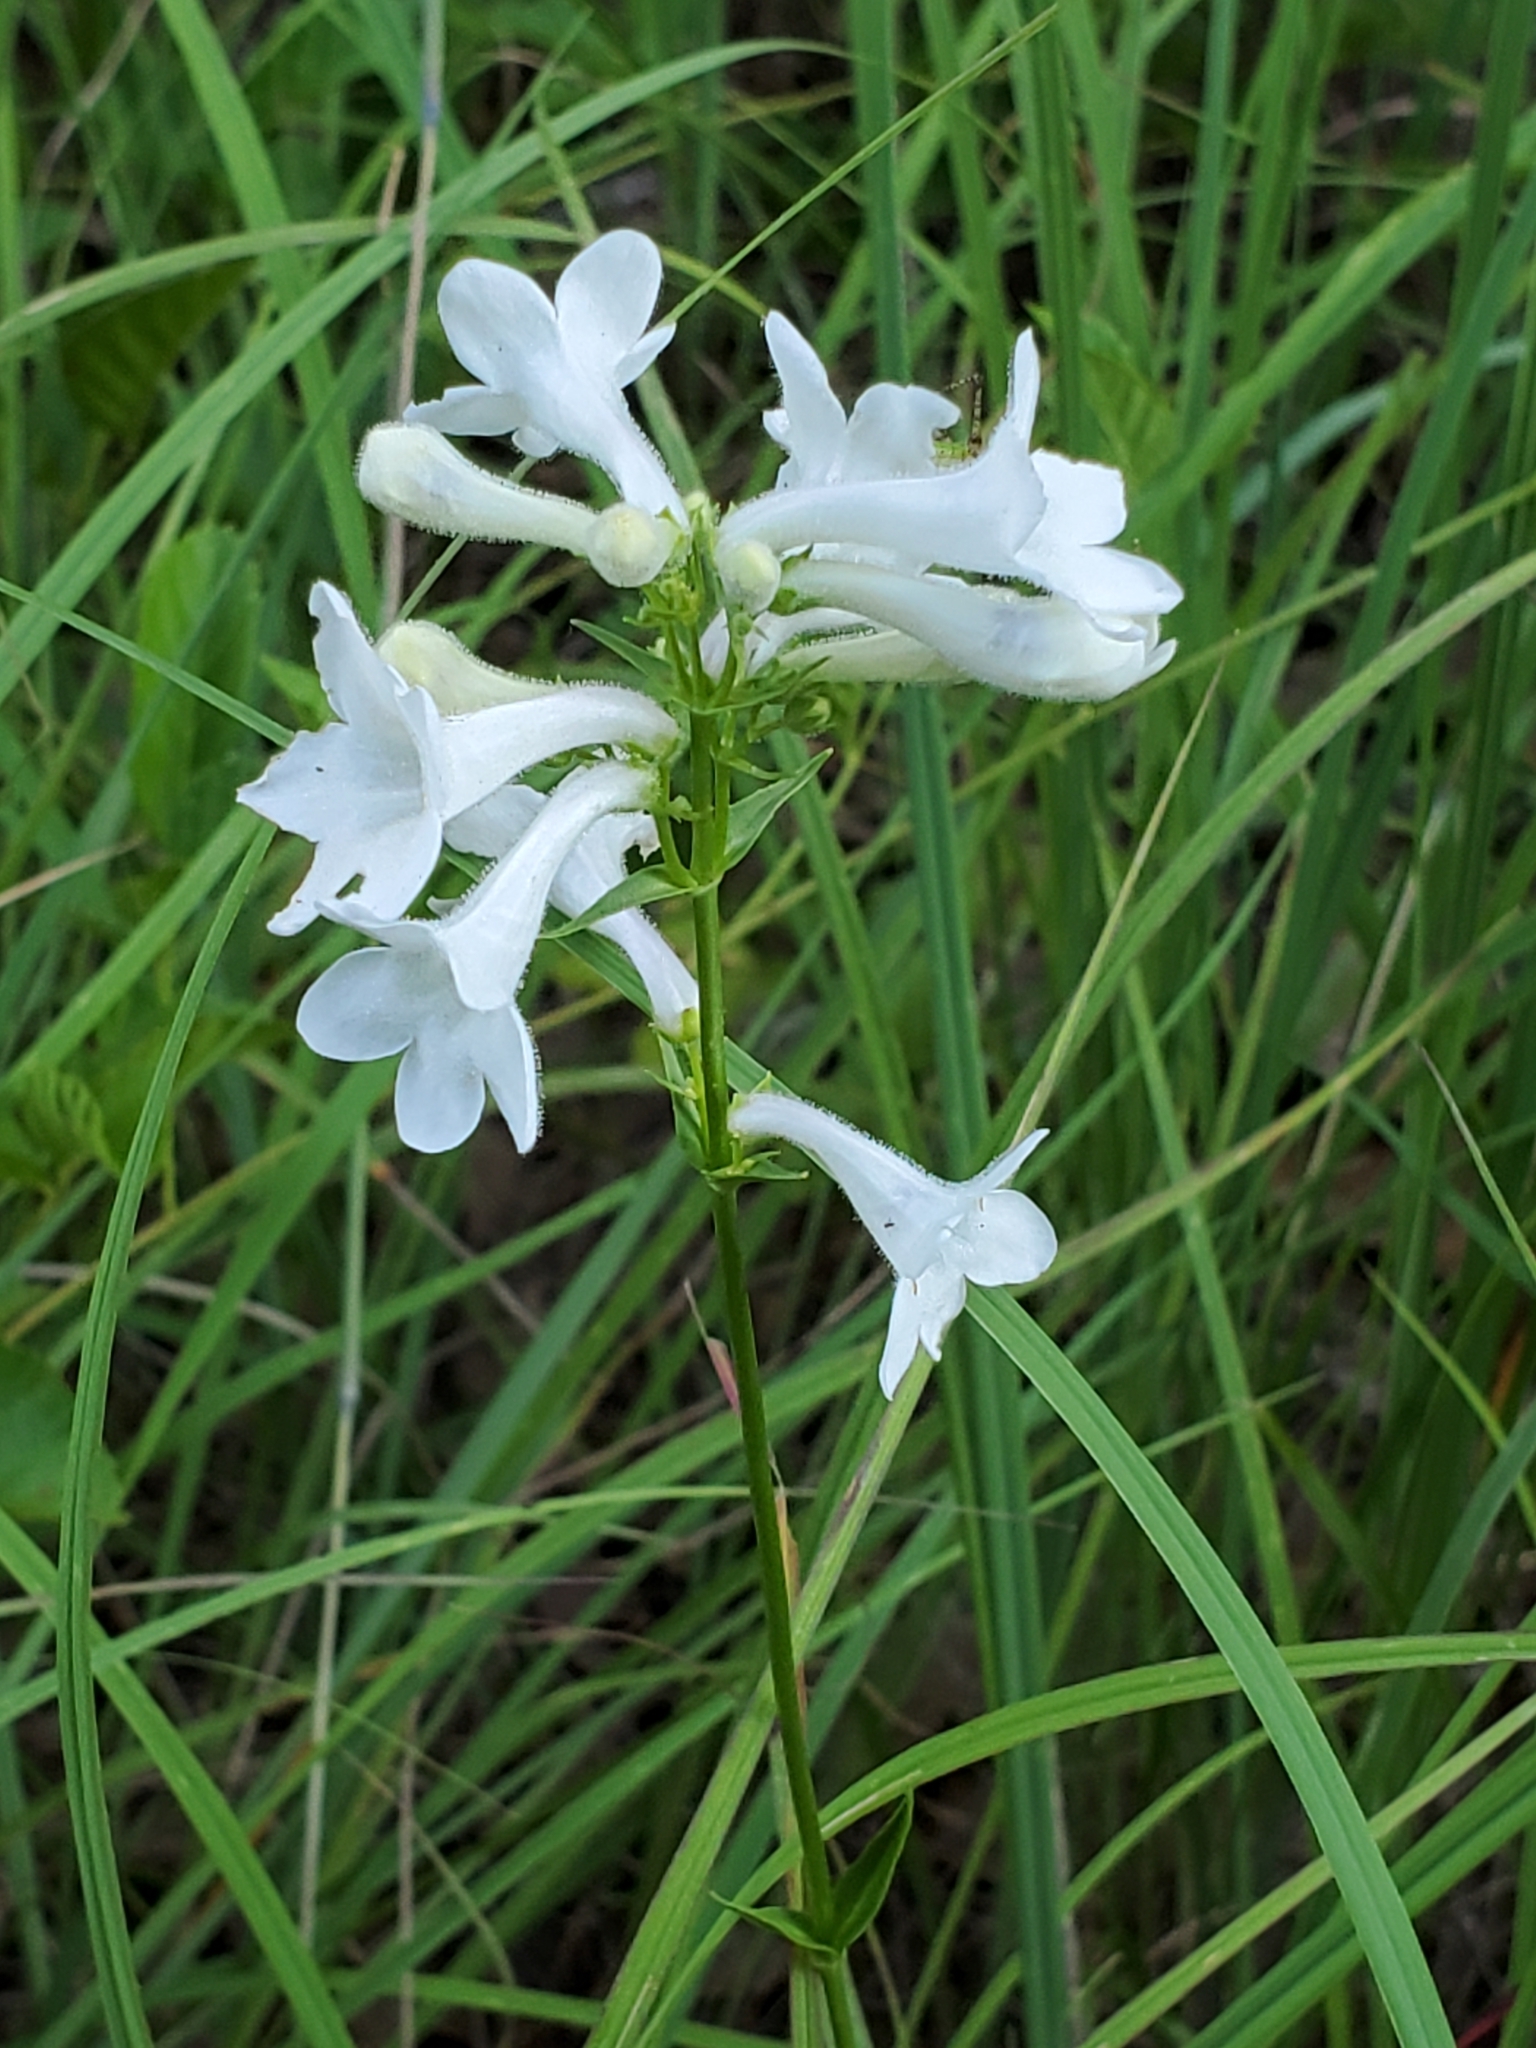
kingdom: Plantae
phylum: Tracheophyta
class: Magnoliopsida
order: Lamiales
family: Plantaginaceae
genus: Penstemon
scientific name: Penstemon tubaeflorus
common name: White wand beardtongue
